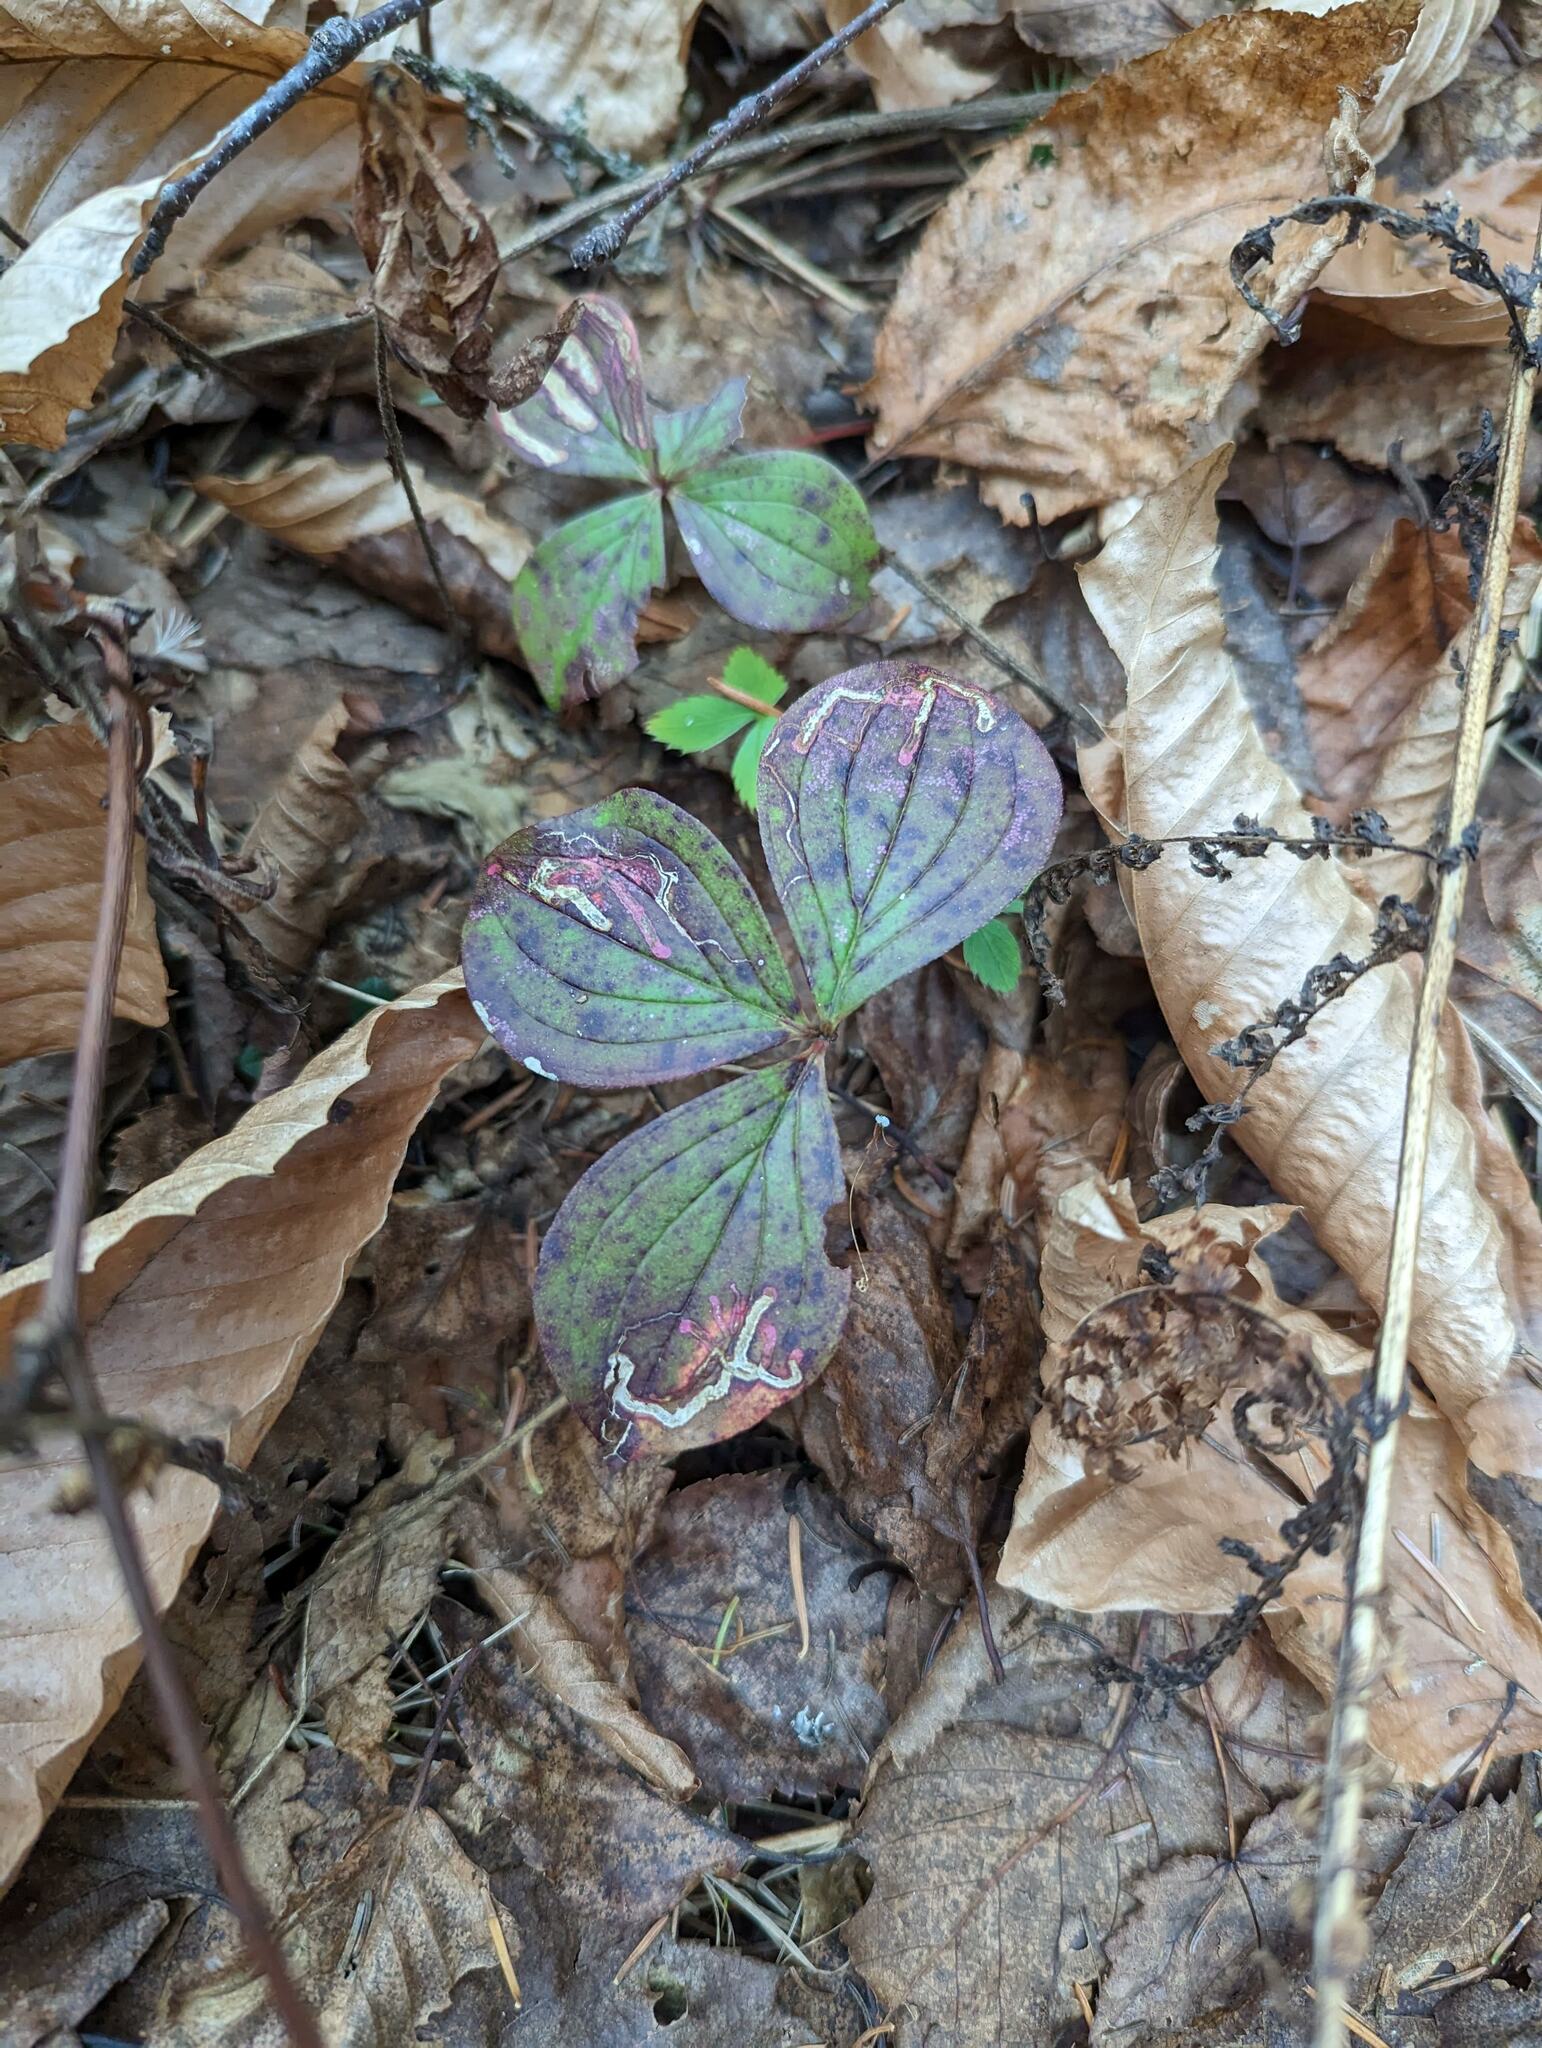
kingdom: Plantae
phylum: Tracheophyta
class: Magnoliopsida
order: Cornales
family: Cornaceae
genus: Cornus
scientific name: Cornus canadensis
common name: Creeping dogwood
